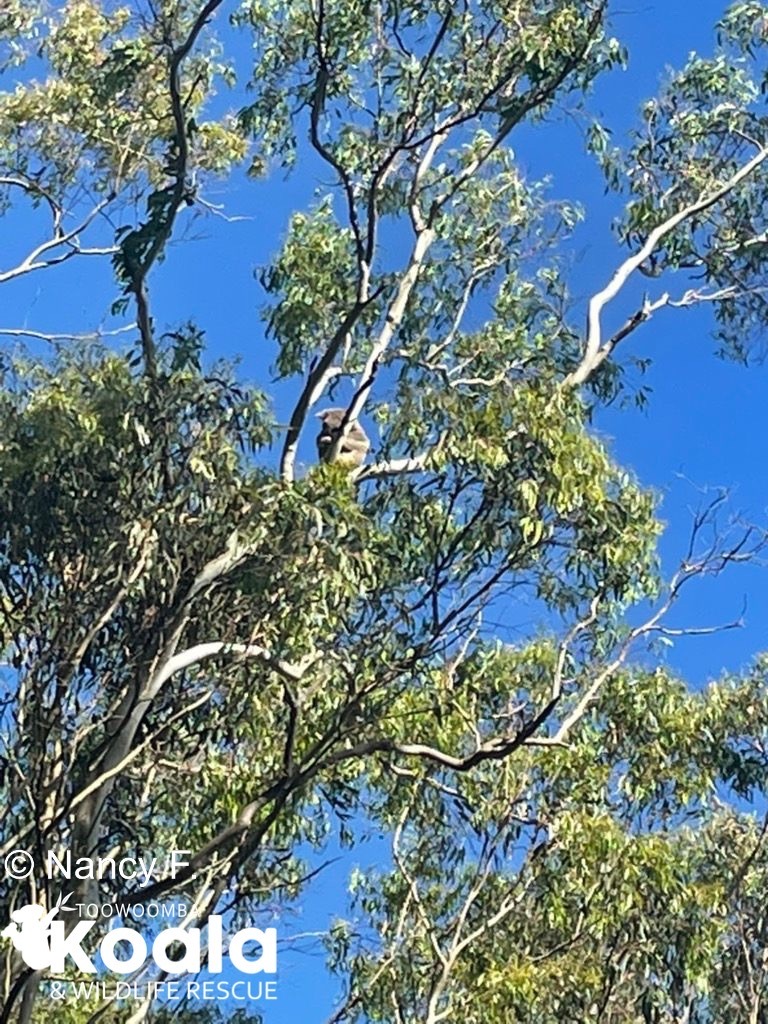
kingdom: Animalia
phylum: Chordata
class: Mammalia
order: Diprotodontia
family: Phascolarctidae
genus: Phascolarctos
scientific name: Phascolarctos cinereus
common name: Koala
